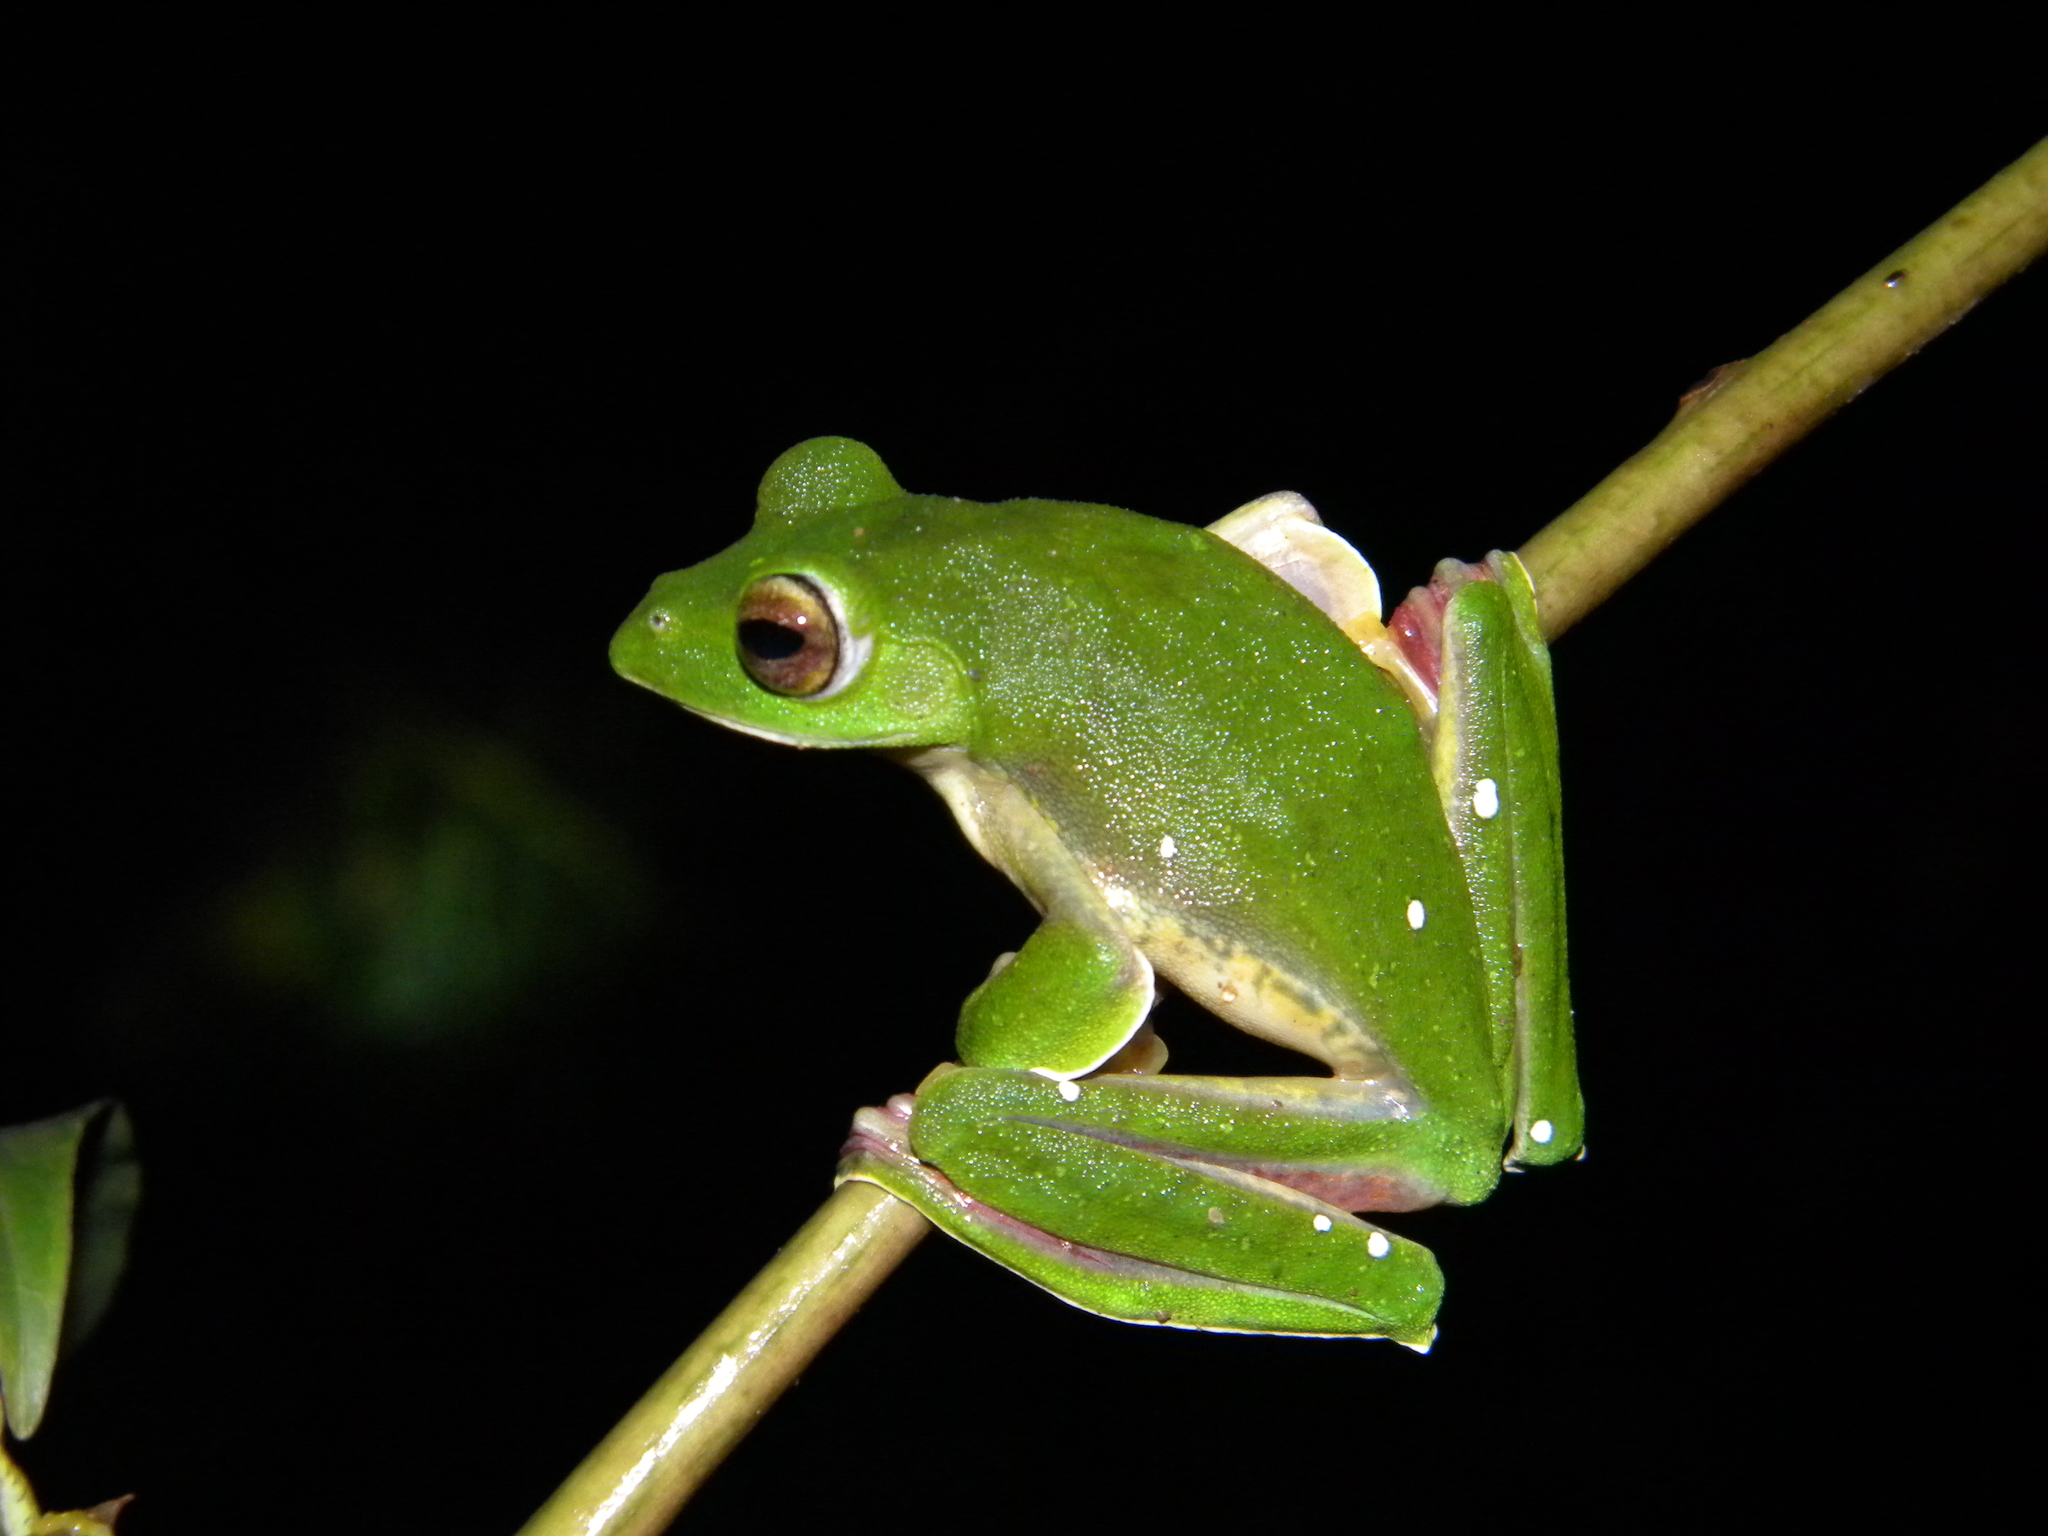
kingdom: Animalia
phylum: Chordata
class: Amphibia
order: Anura
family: Rhacophoridae
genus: Rhacophorus
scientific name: Rhacophorus malabaricus
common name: Malabar gliding frog
